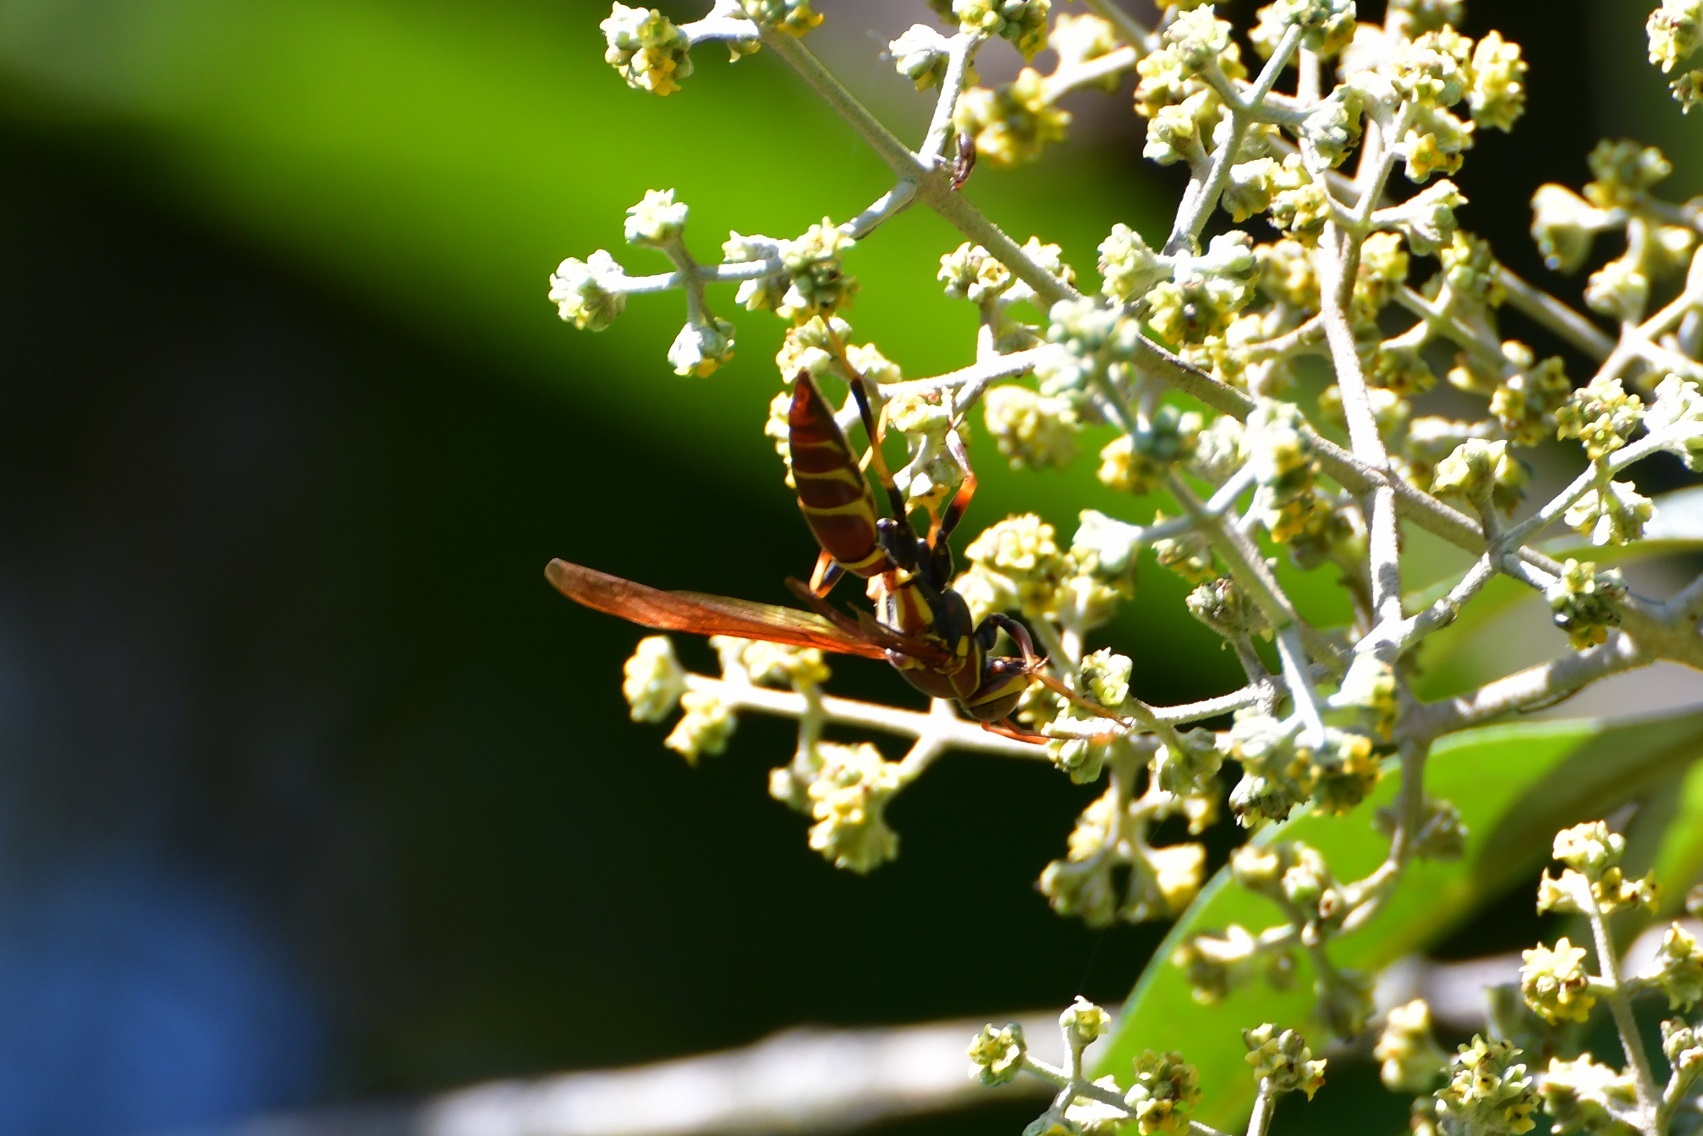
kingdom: Animalia
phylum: Arthropoda
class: Insecta
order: Hymenoptera
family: Eumenidae
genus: Polistes
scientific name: Polistes instabilis
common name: Unstable paper wasp
